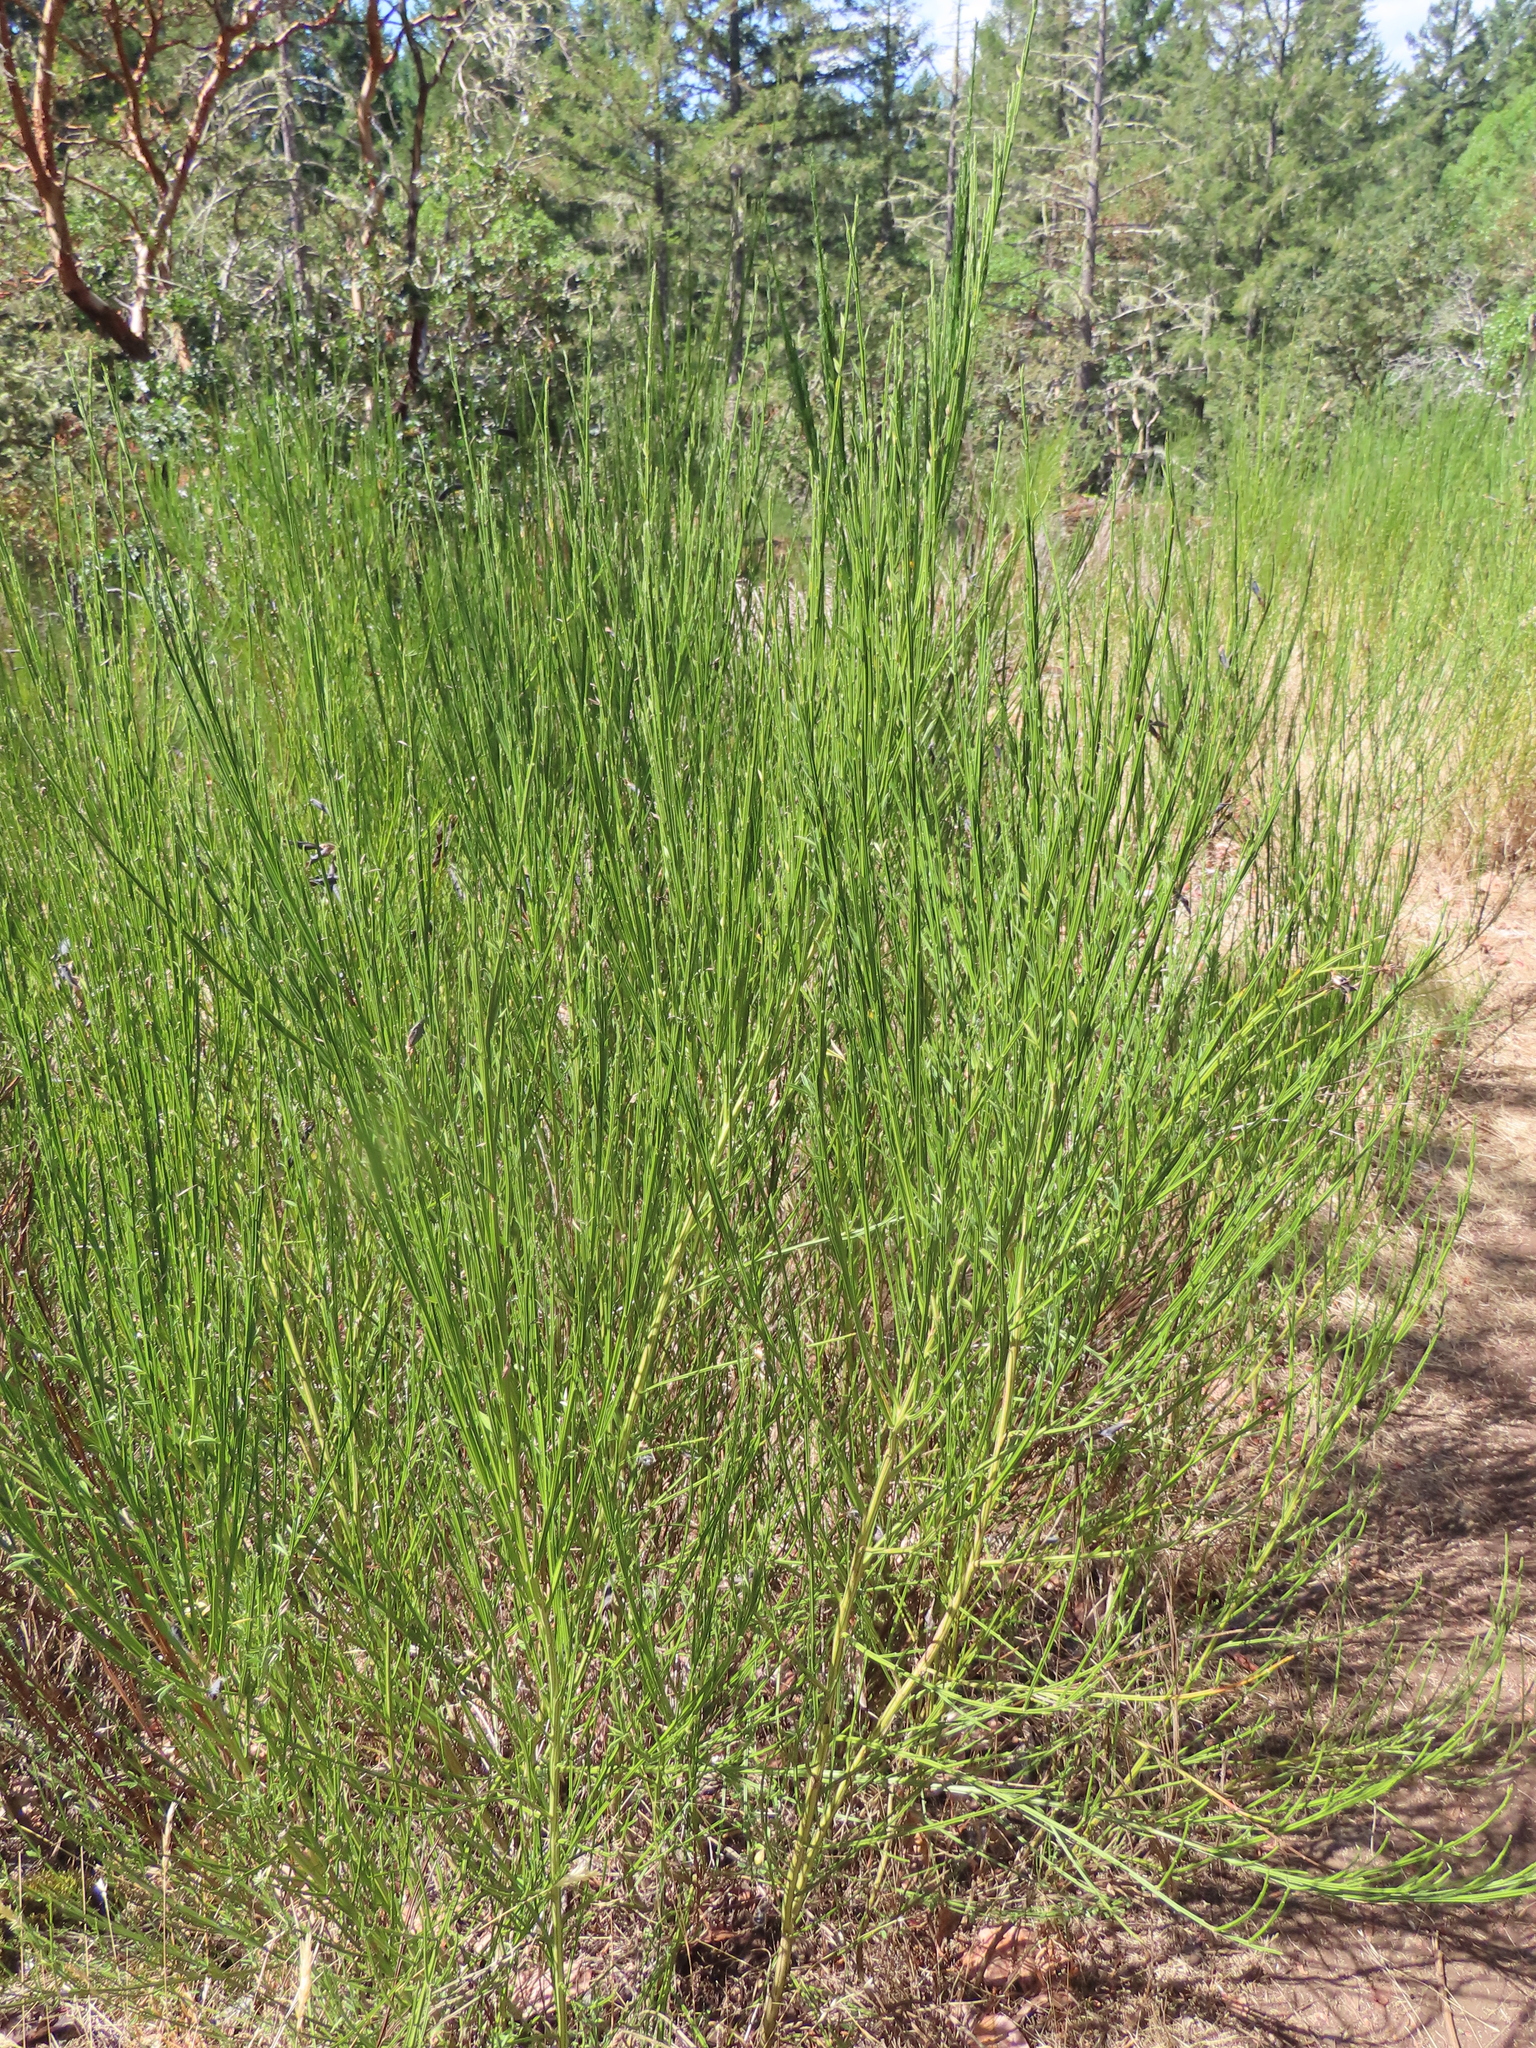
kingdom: Plantae
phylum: Tracheophyta
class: Magnoliopsida
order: Fabales
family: Fabaceae
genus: Cytisus
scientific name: Cytisus scoparius
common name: Scotch broom
